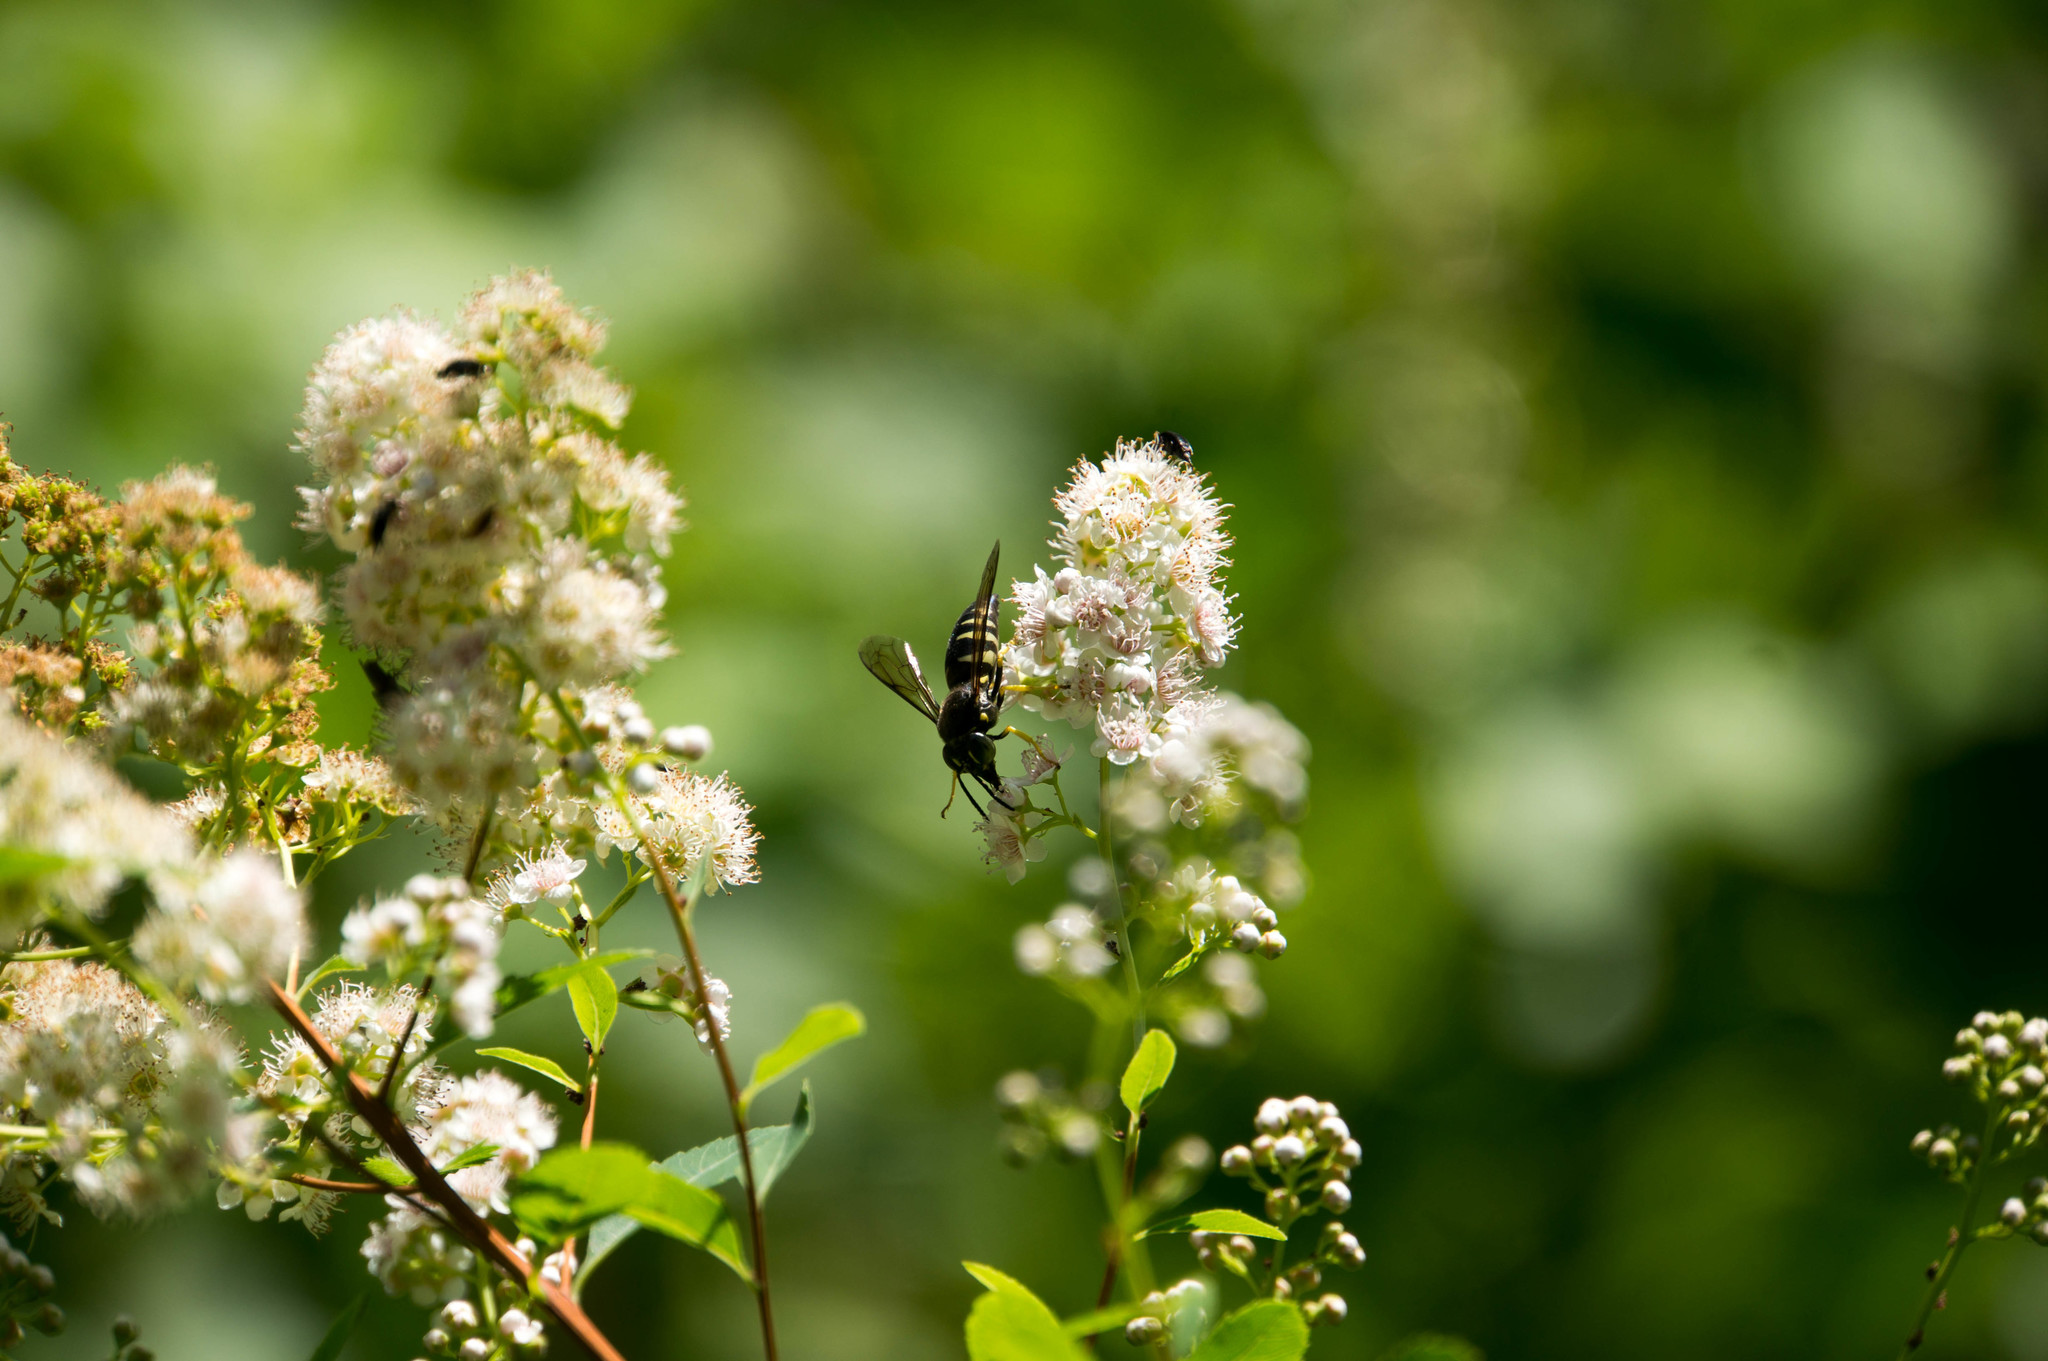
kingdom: Animalia
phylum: Arthropoda
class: Insecta
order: Hymenoptera
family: Crabronidae
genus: Bicyrtes
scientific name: Bicyrtes quadrifasciatus
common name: Four-banded stink bug hunter wasp
